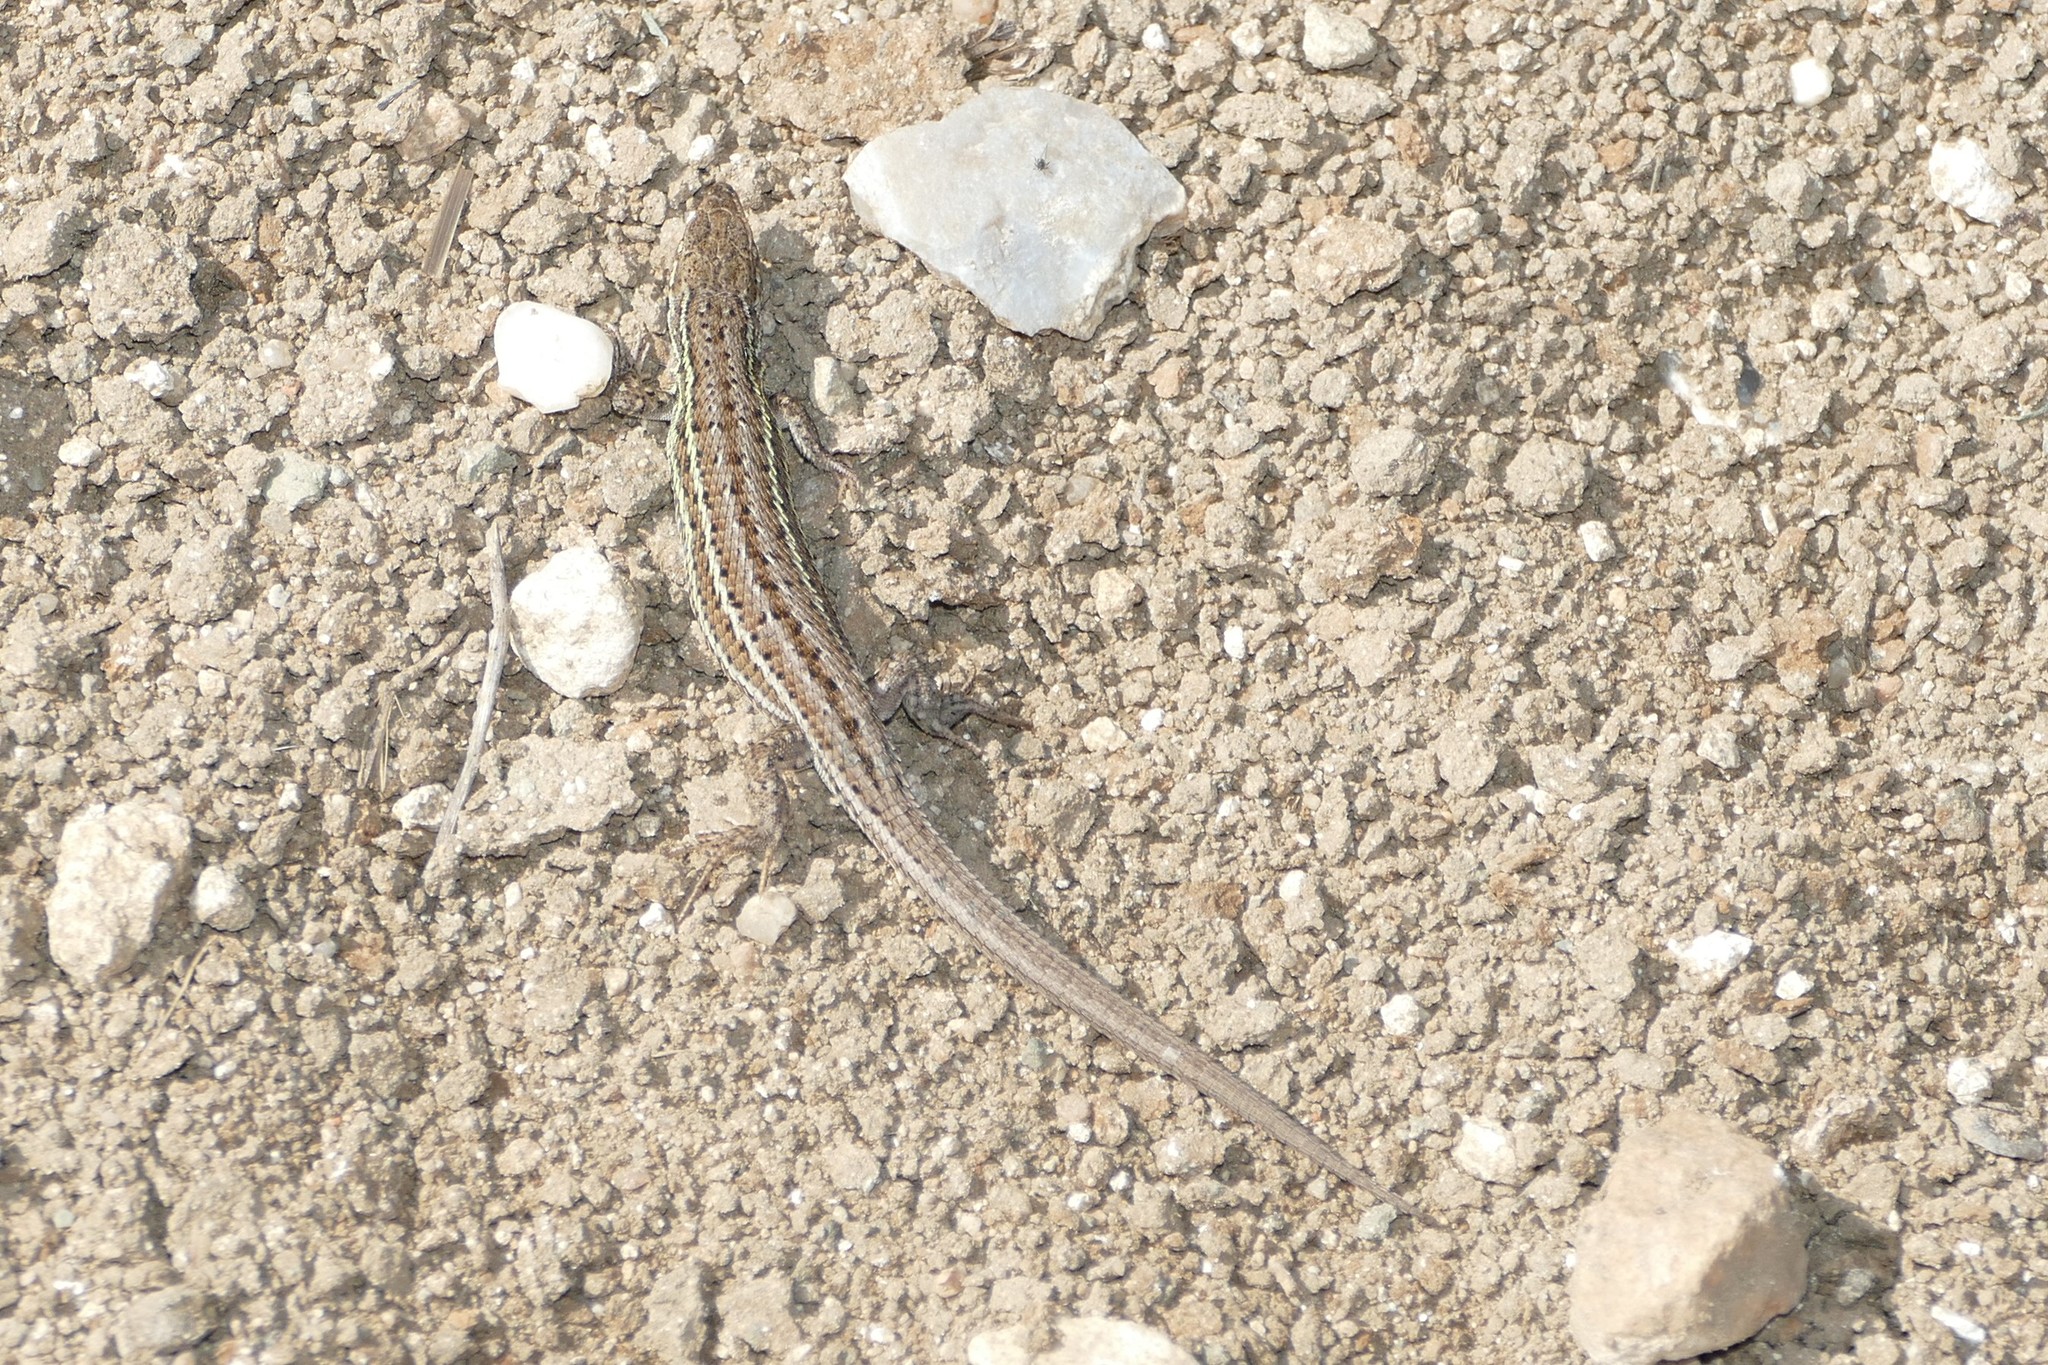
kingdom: Animalia
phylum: Chordata
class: Squamata
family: Lacertidae
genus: Psammodromus
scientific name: Psammodromus hispanicus
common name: Spanish psammodromus
